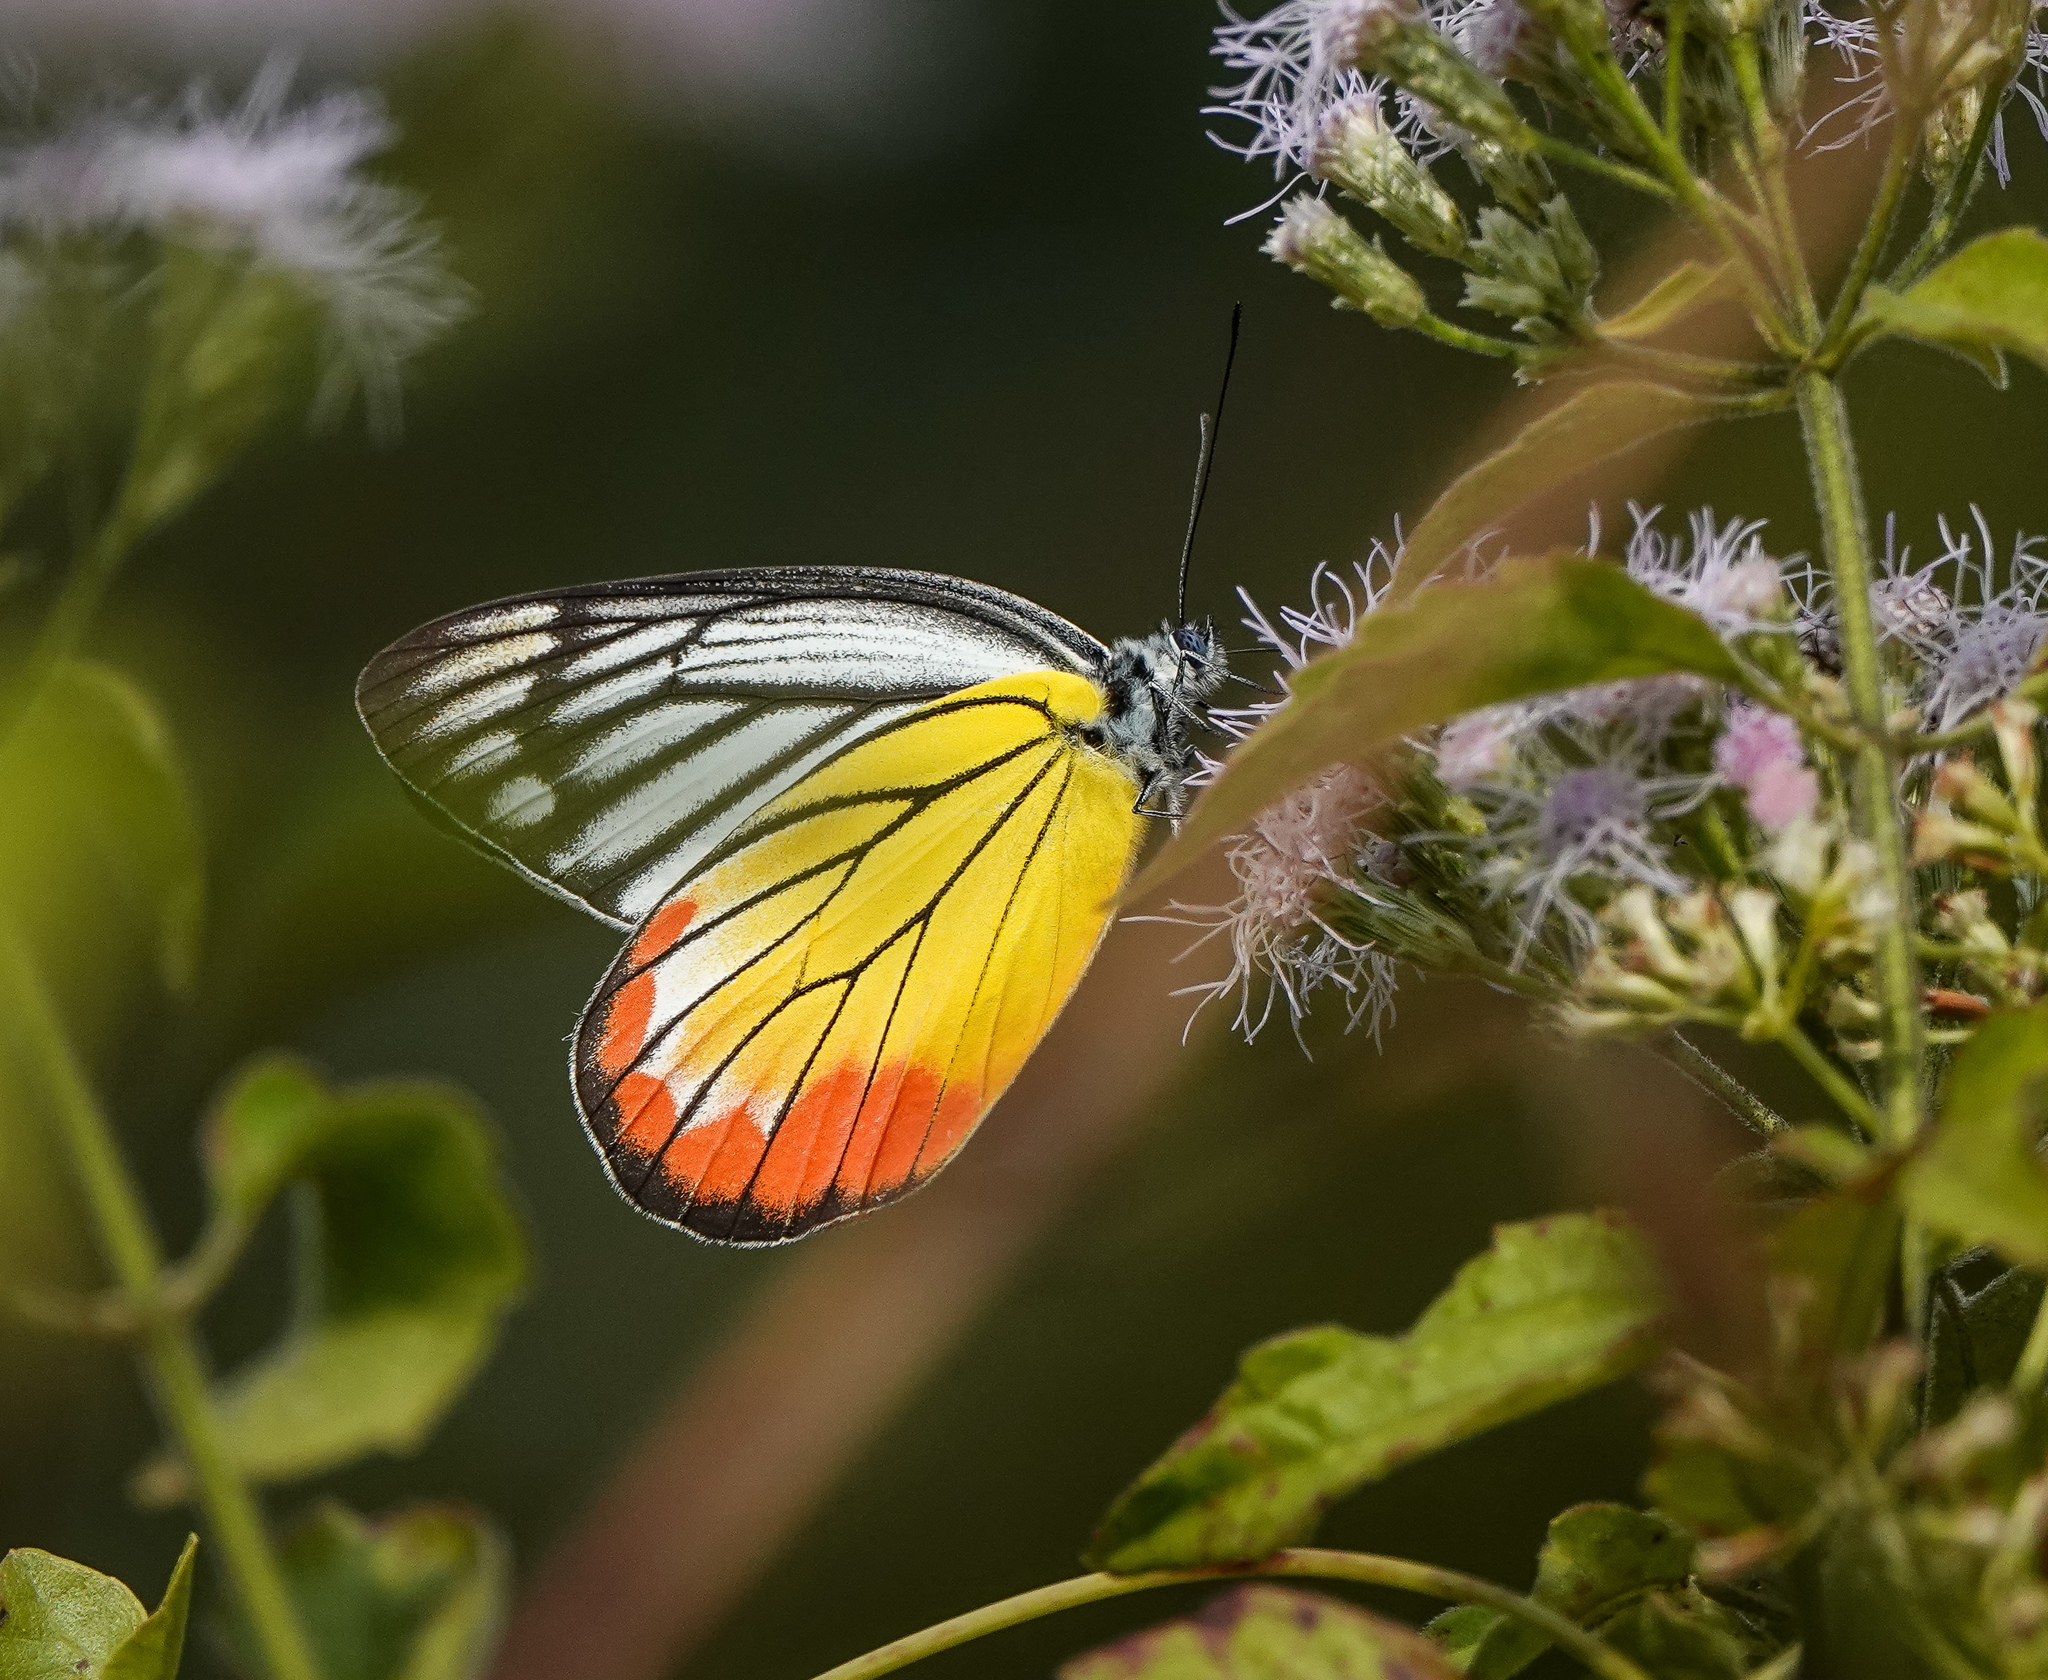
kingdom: Animalia
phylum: Arthropoda
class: Insecta
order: Lepidoptera
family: Pieridae
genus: Delias
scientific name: Delias hyparete
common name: Painted jezebel
